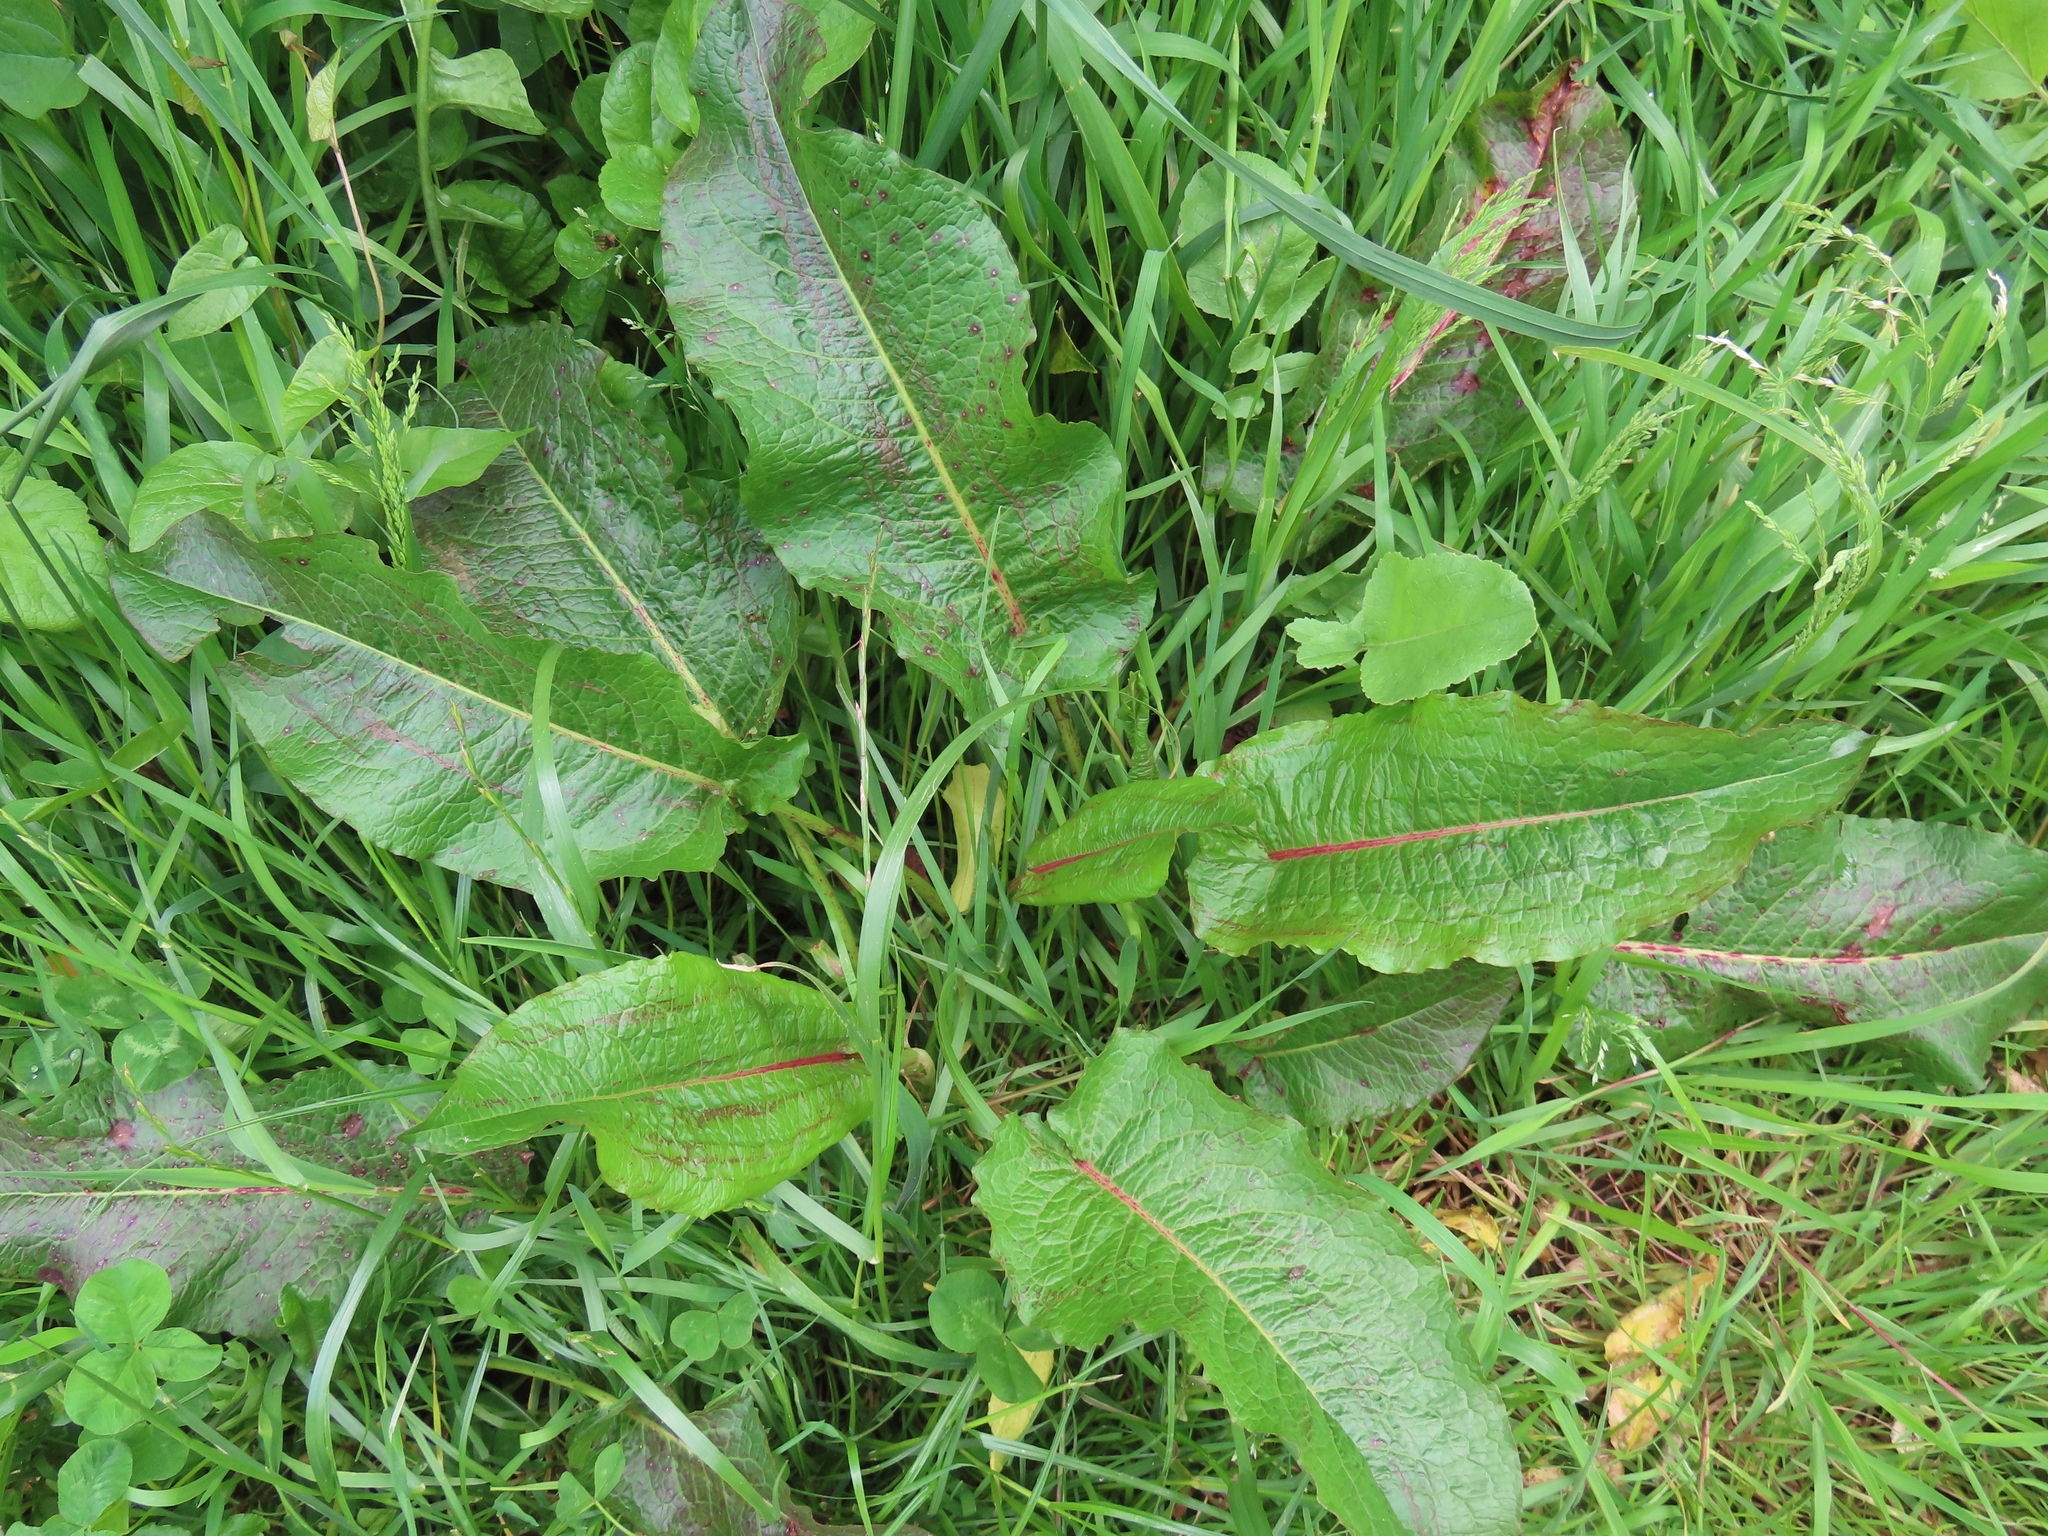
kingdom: Plantae
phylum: Tracheophyta
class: Magnoliopsida
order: Caryophyllales
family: Polygonaceae
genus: Rumex
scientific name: Rumex obtusifolius
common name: Bitter dock
